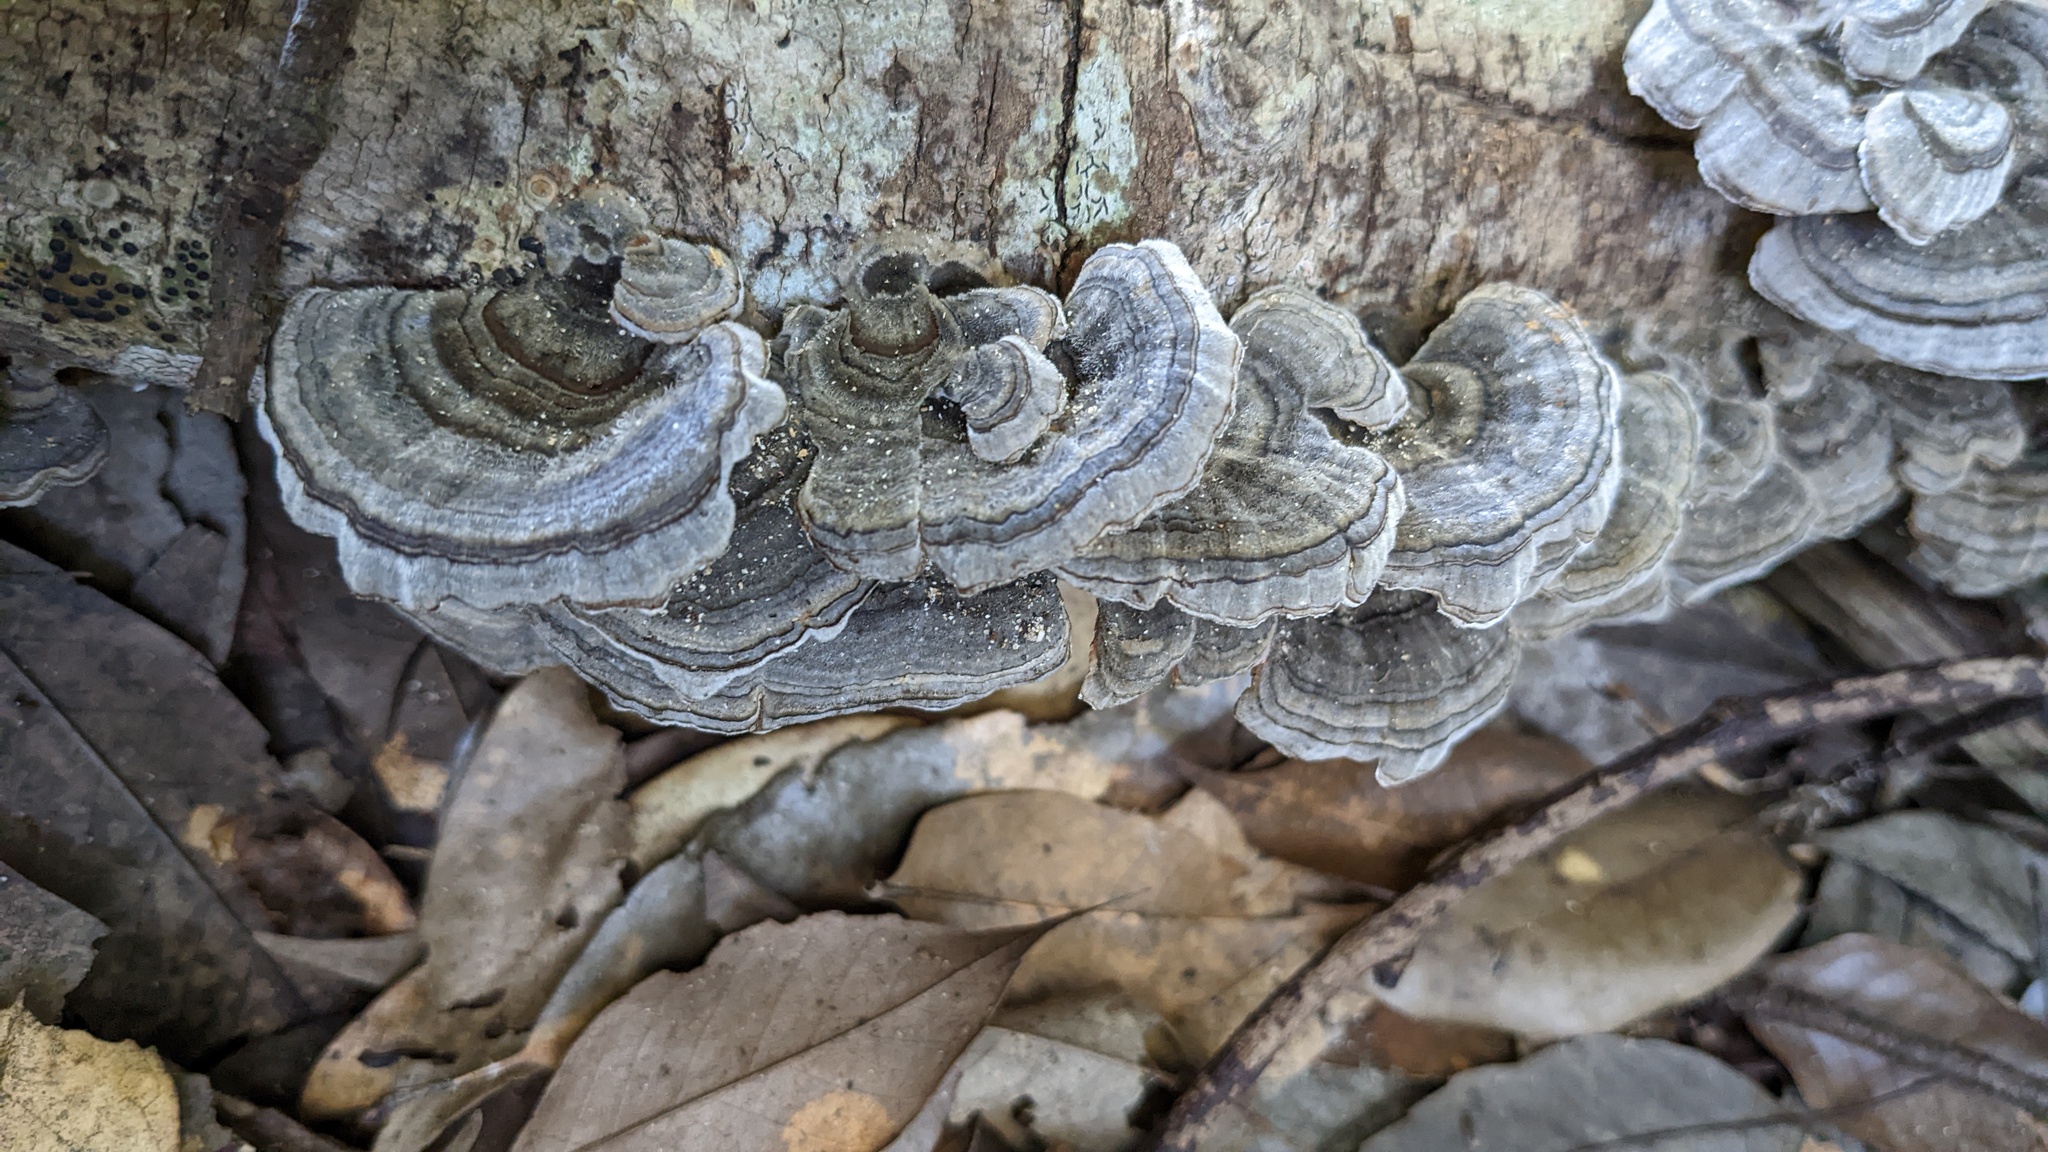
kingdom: Fungi
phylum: Basidiomycota
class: Agaricomycetes
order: Polyporales
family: Polyporaceae
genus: Trametes
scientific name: Trametes versicolor
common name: Turkeytail
